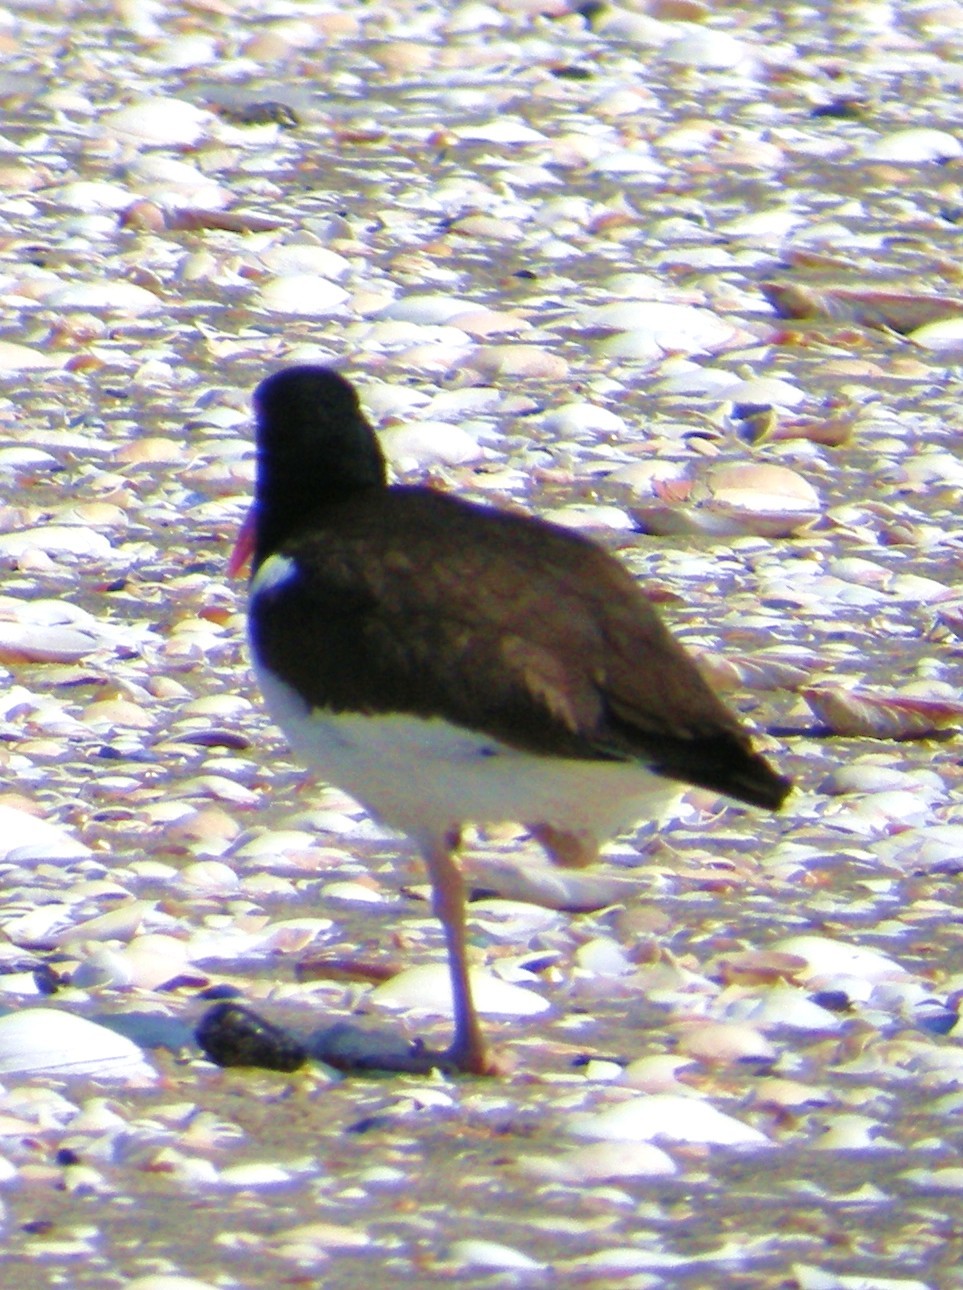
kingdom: Animalia
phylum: Chordata
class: Aves
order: Charadriiformes
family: Haematopodidae
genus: Haematopus
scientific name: Haematopus palliatus
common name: American oystercatcher
